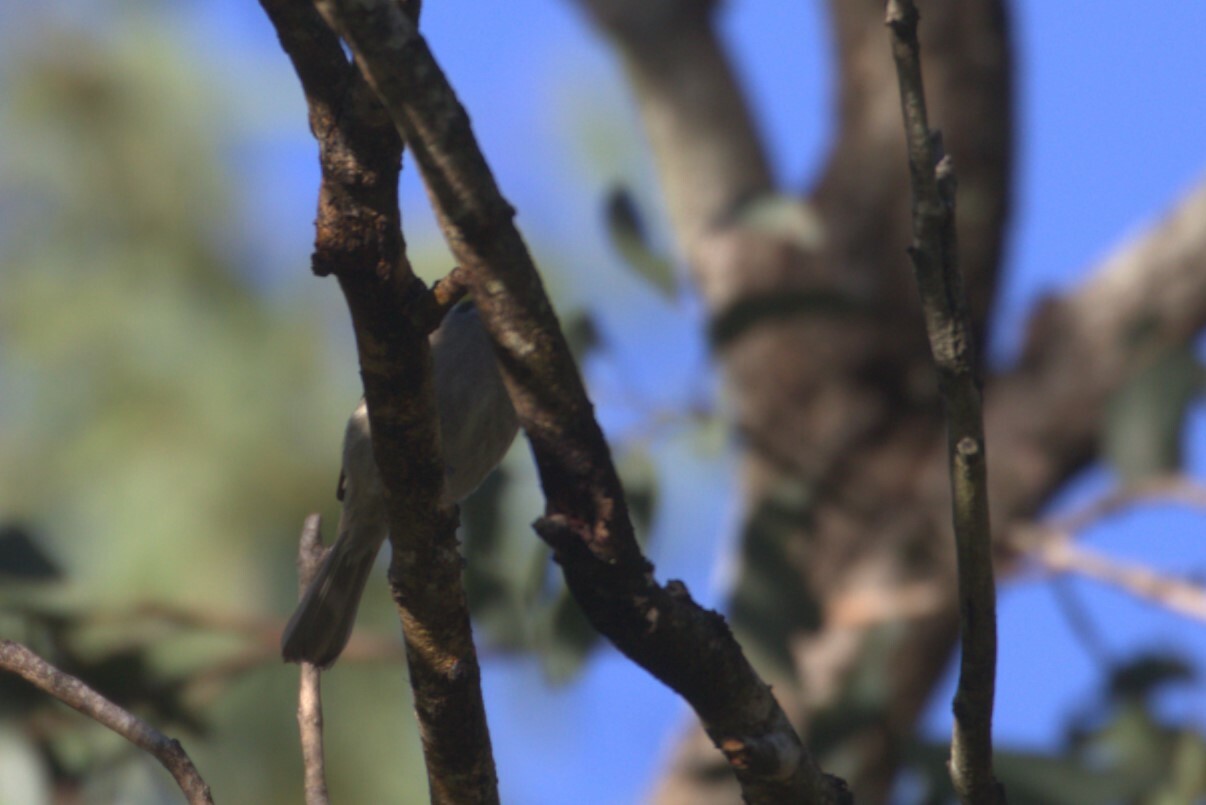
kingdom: Animalia
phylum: Chordata
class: Aves
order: Passeriformes
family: Meliphagidae
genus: Caligavis
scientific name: Caligavis chrysops
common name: Yellow-faced honeyeater
